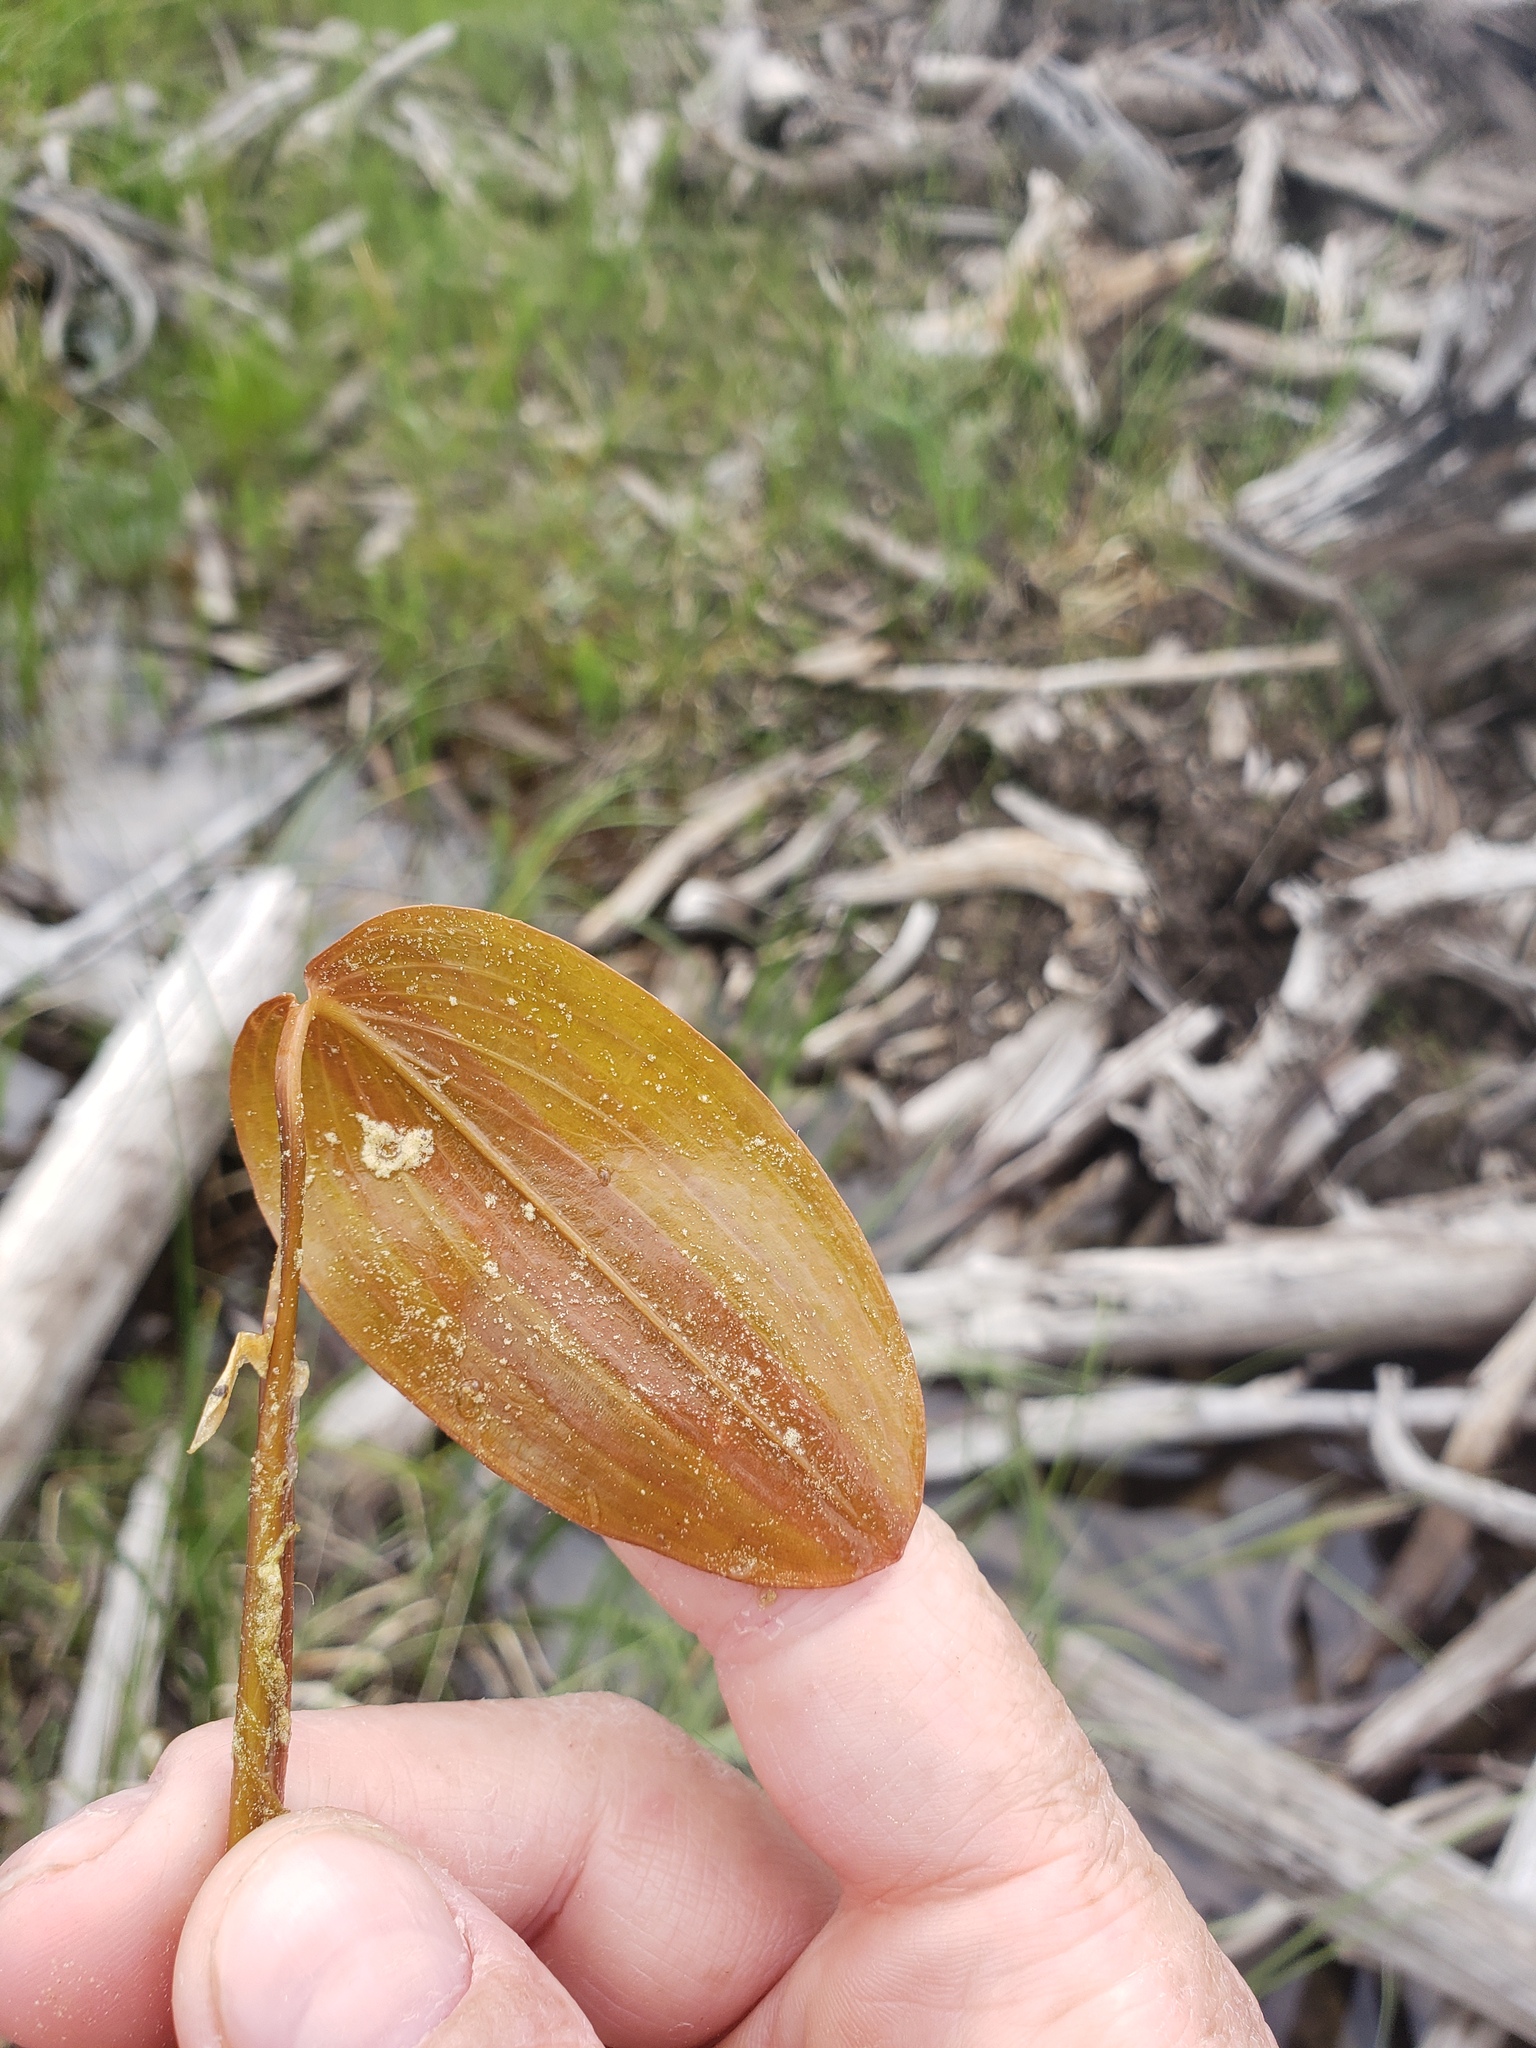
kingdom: Plantae
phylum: Tracheophyta
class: Liliopsida
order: Alismatales
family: Potamogetonaceae
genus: Potamogeton
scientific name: Potamogeton natans
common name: Broad-leaved pondweed
